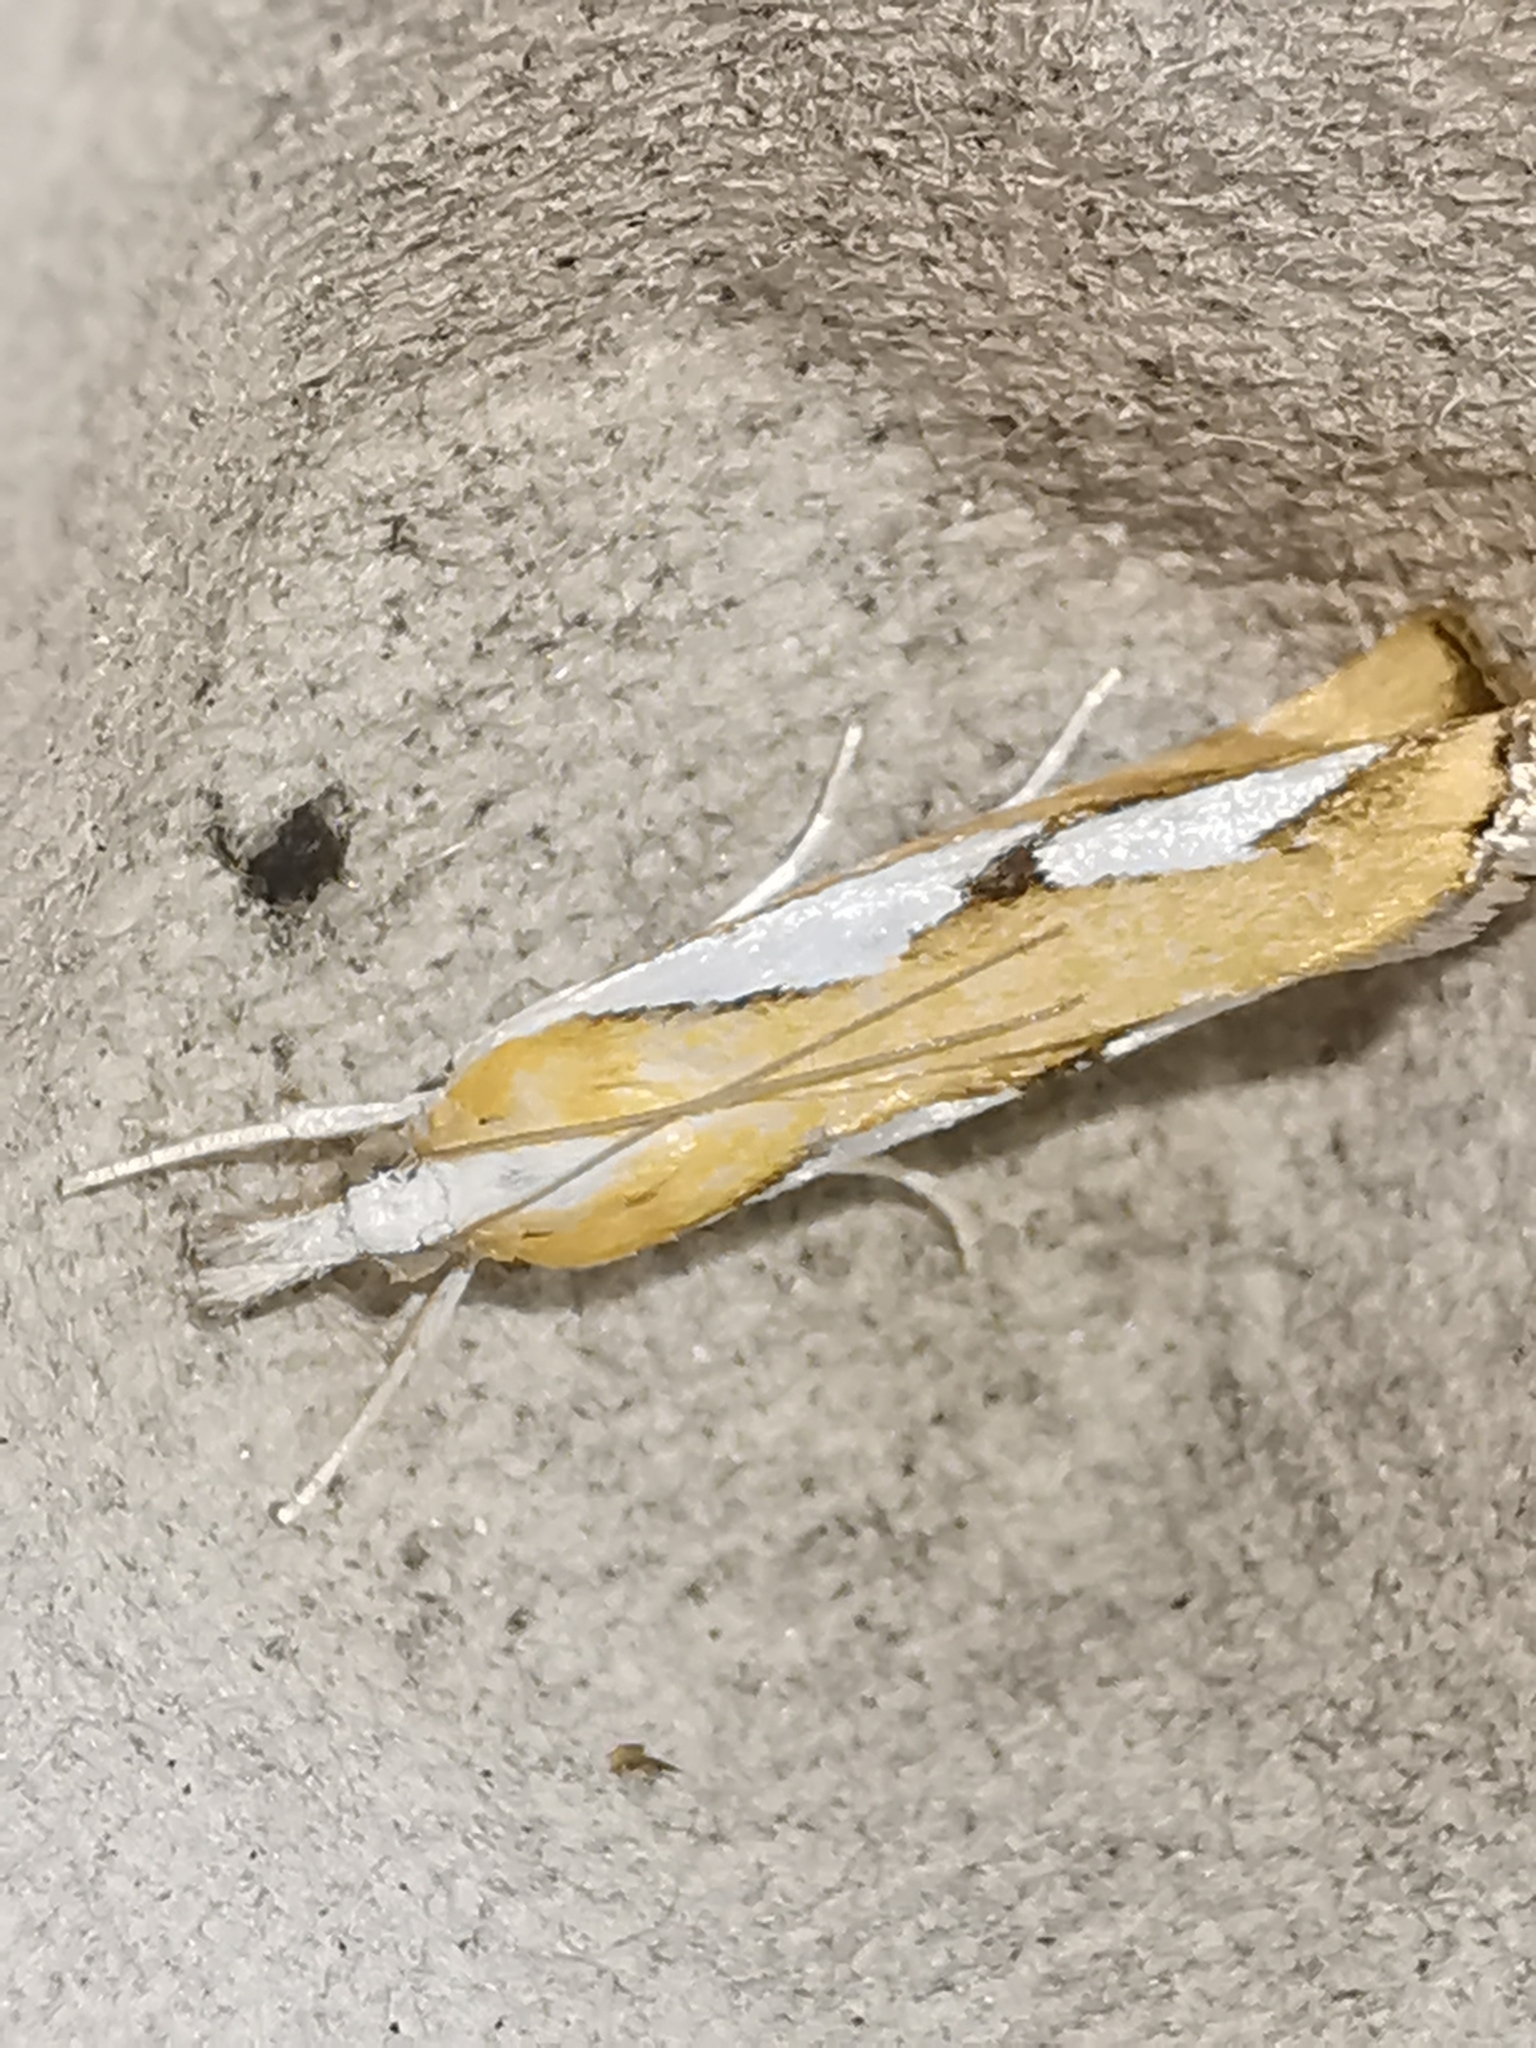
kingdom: Animalia
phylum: Arthropoda
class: Insecta
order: Lepidoptera
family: Crambidae
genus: Catoptria
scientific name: Catoptria pinella
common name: Pearl grass-veneer
